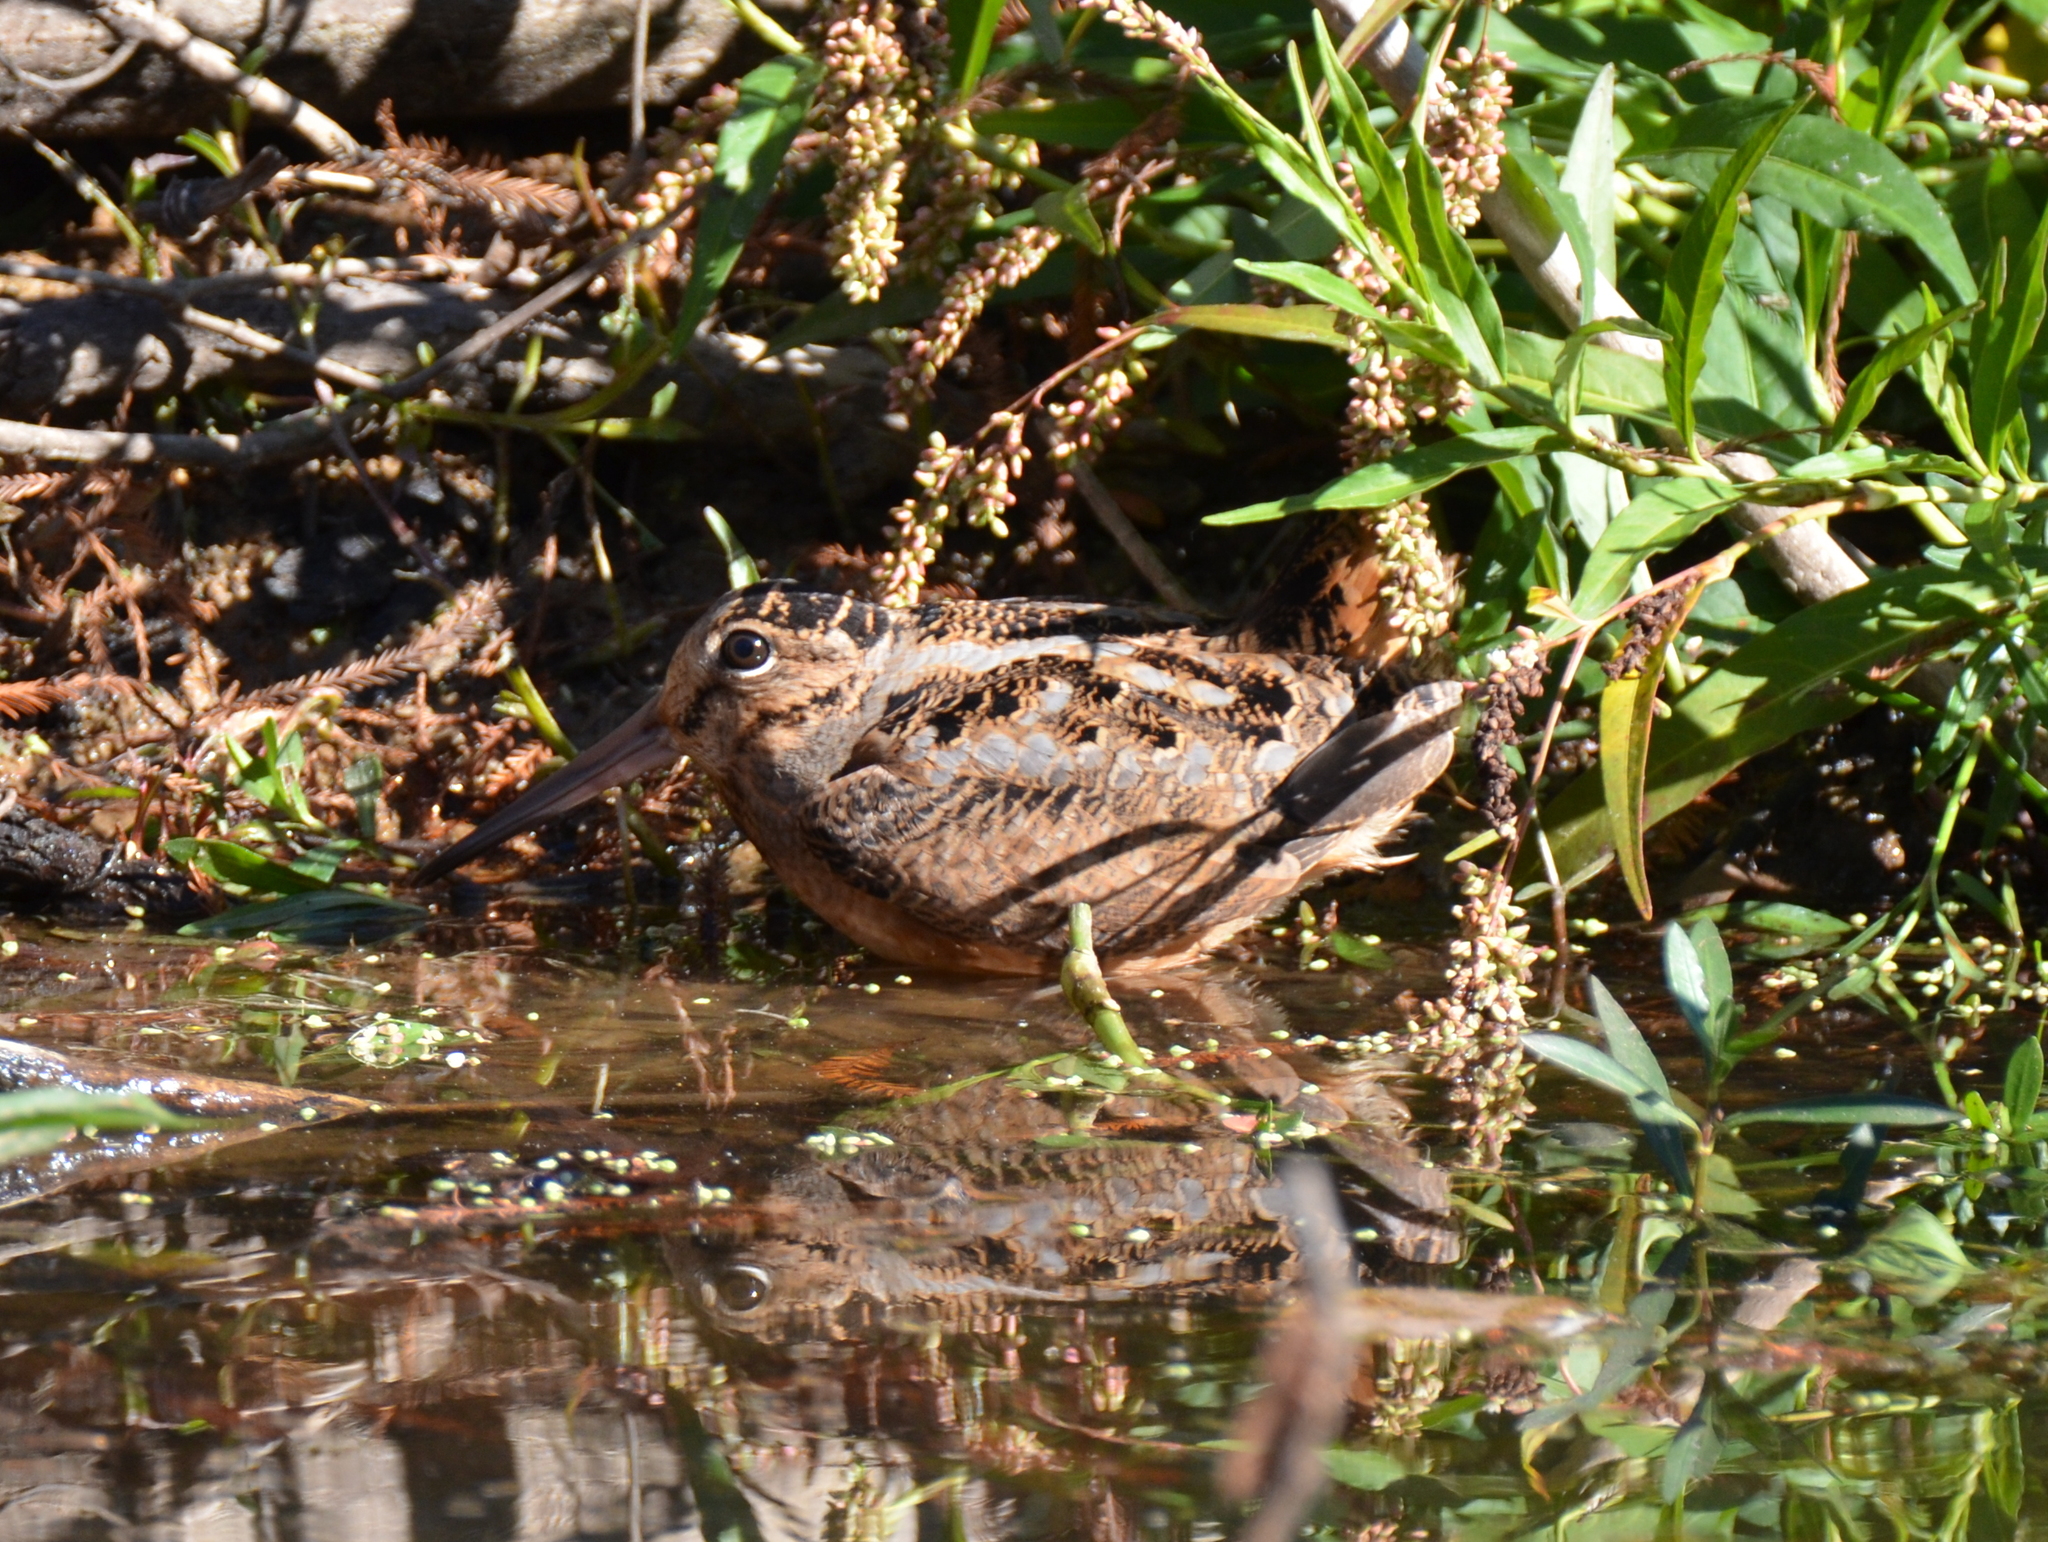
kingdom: Animalia
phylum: Chordata
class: Aves
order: Charadriiformes
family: Scolopacidae
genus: Scolopax
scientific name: Scolopax minor
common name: American woodcock
